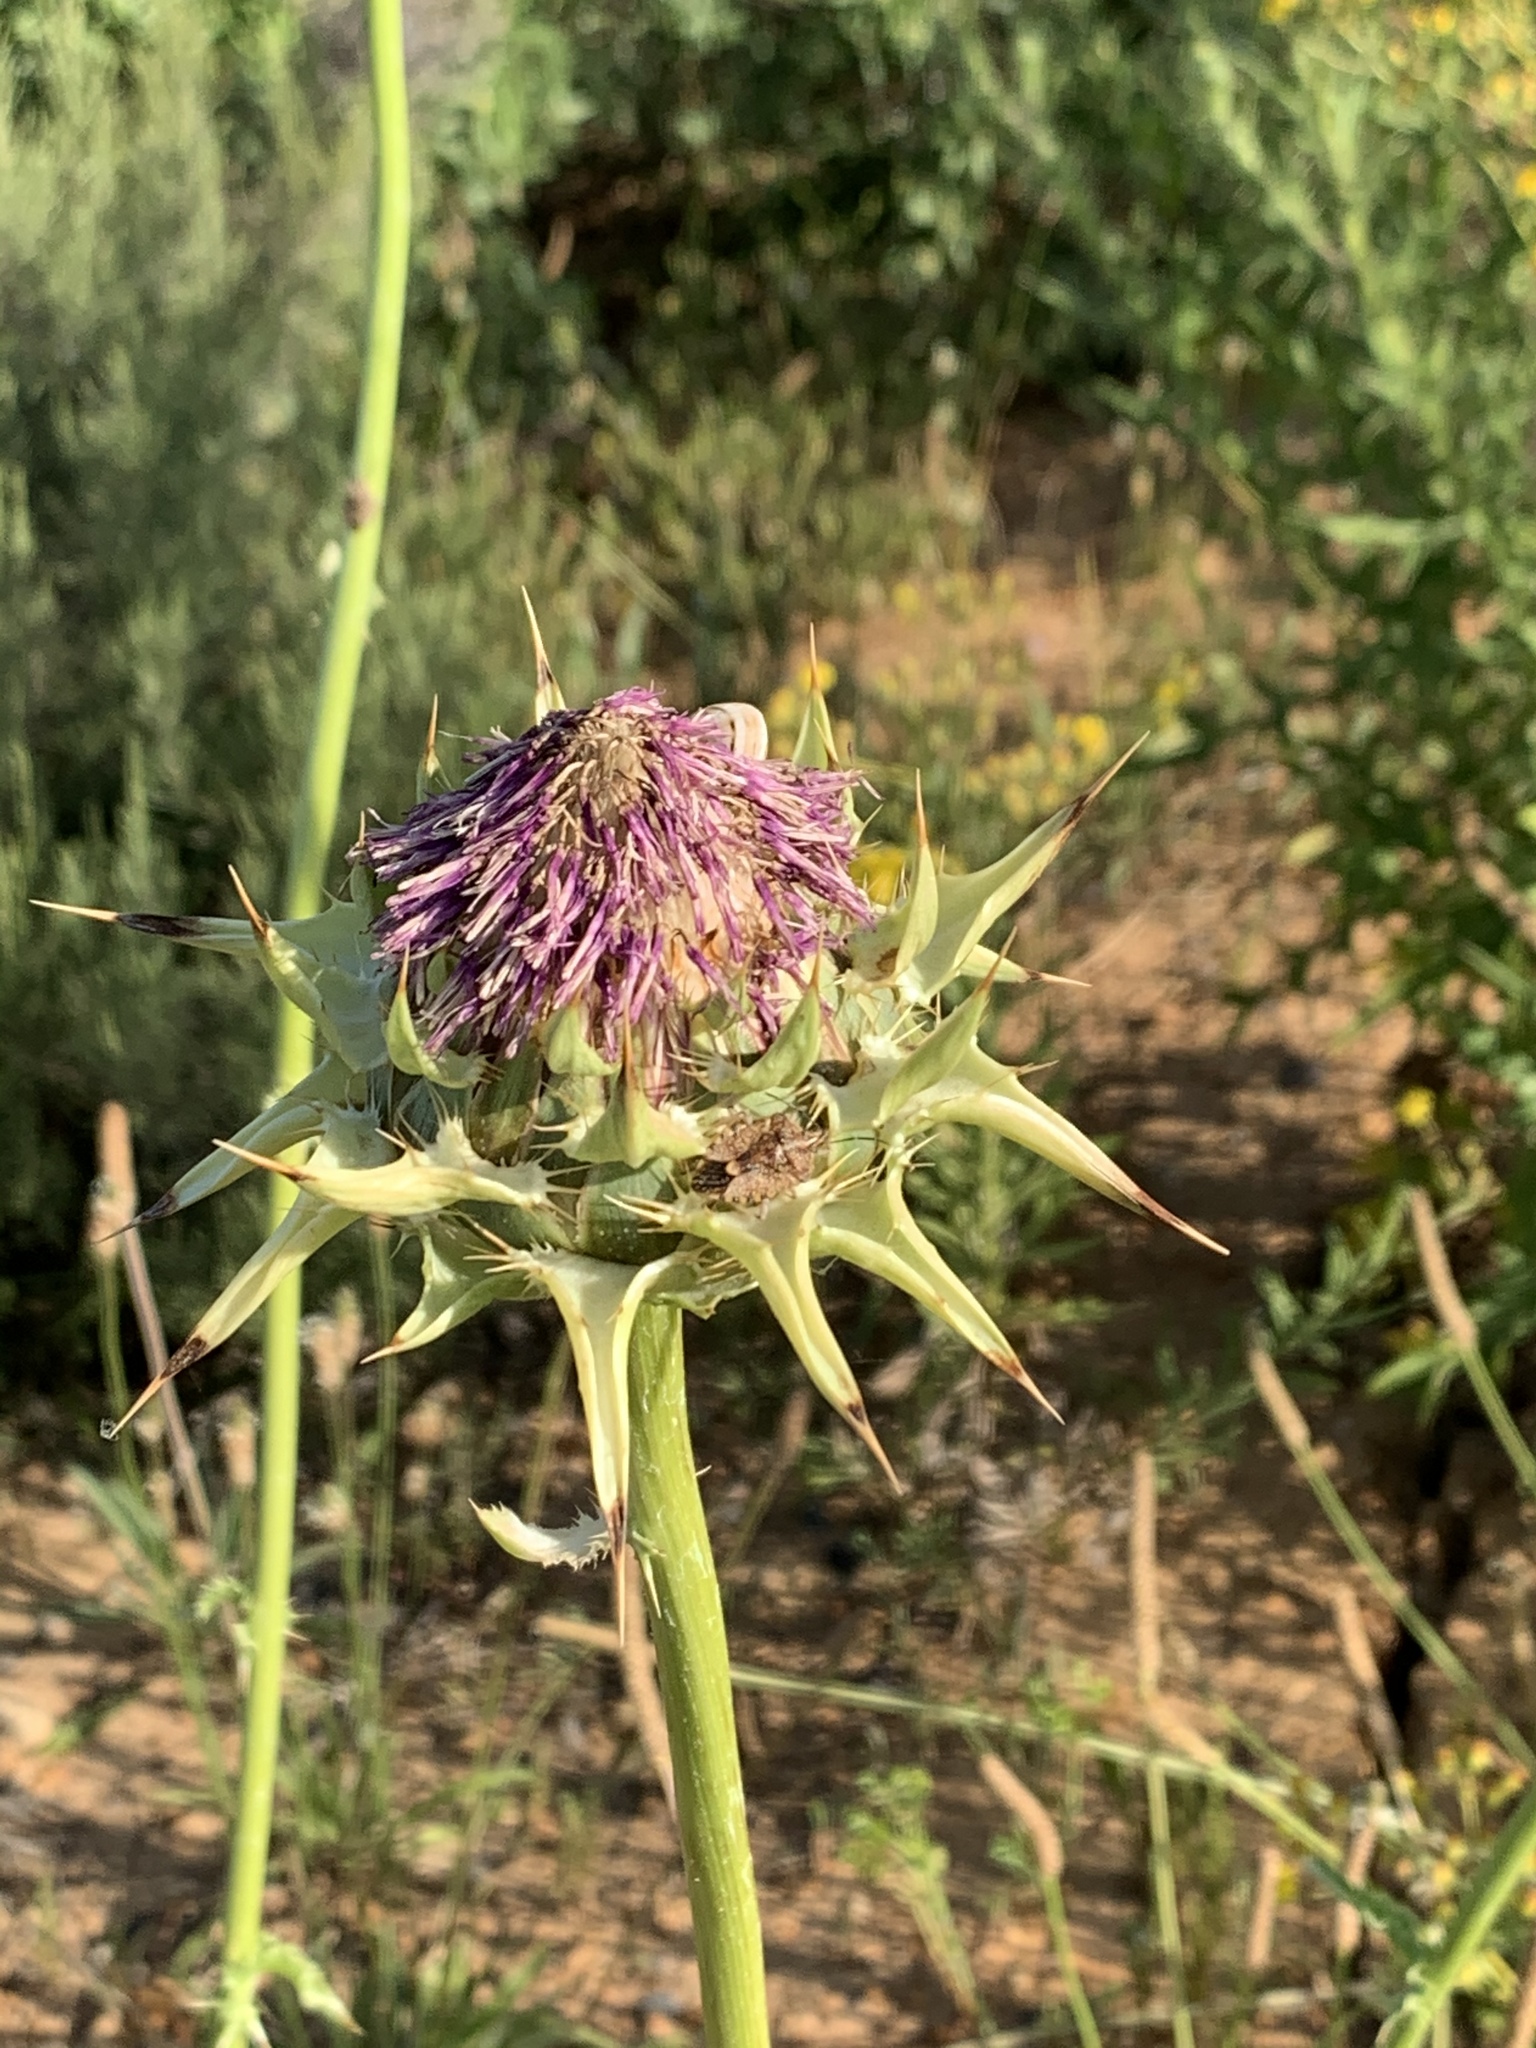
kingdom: Plantae
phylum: Tracheophyta
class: Magnoliopsida
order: Asterales
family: Asteraceae
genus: Silybum
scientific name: Silybum marianum
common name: Milk thistle
